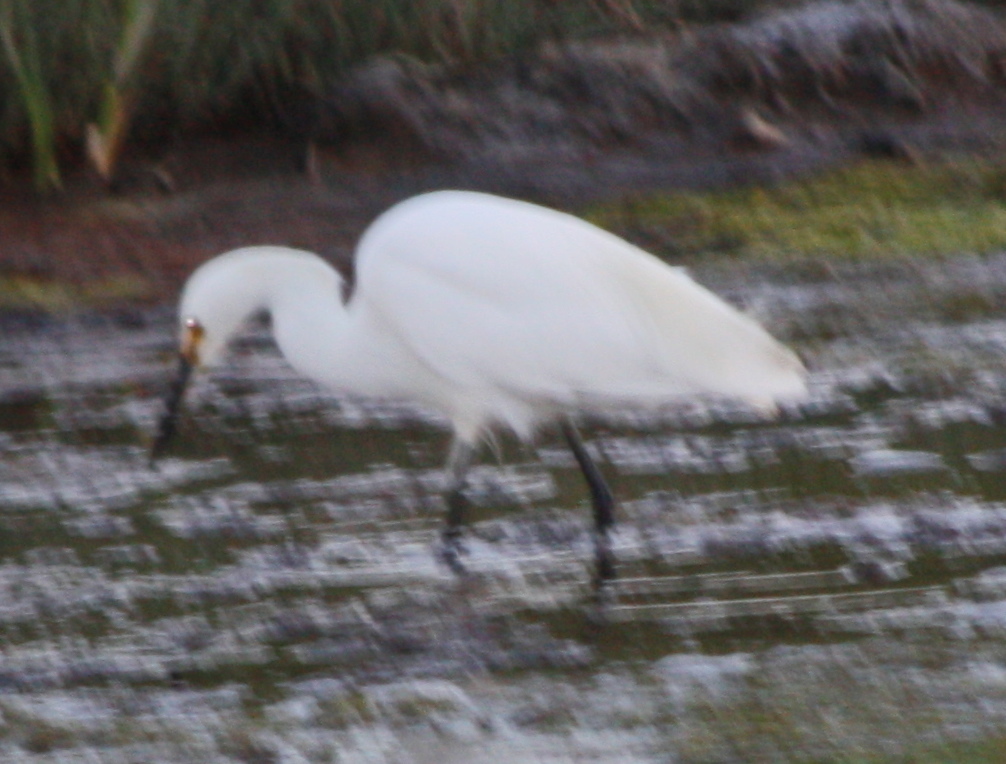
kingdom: Animalia
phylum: Chordata
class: Aves
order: Pelecaniformes
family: Ardeidae
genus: Egretta
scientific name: Egretta thula
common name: Snowy egret
